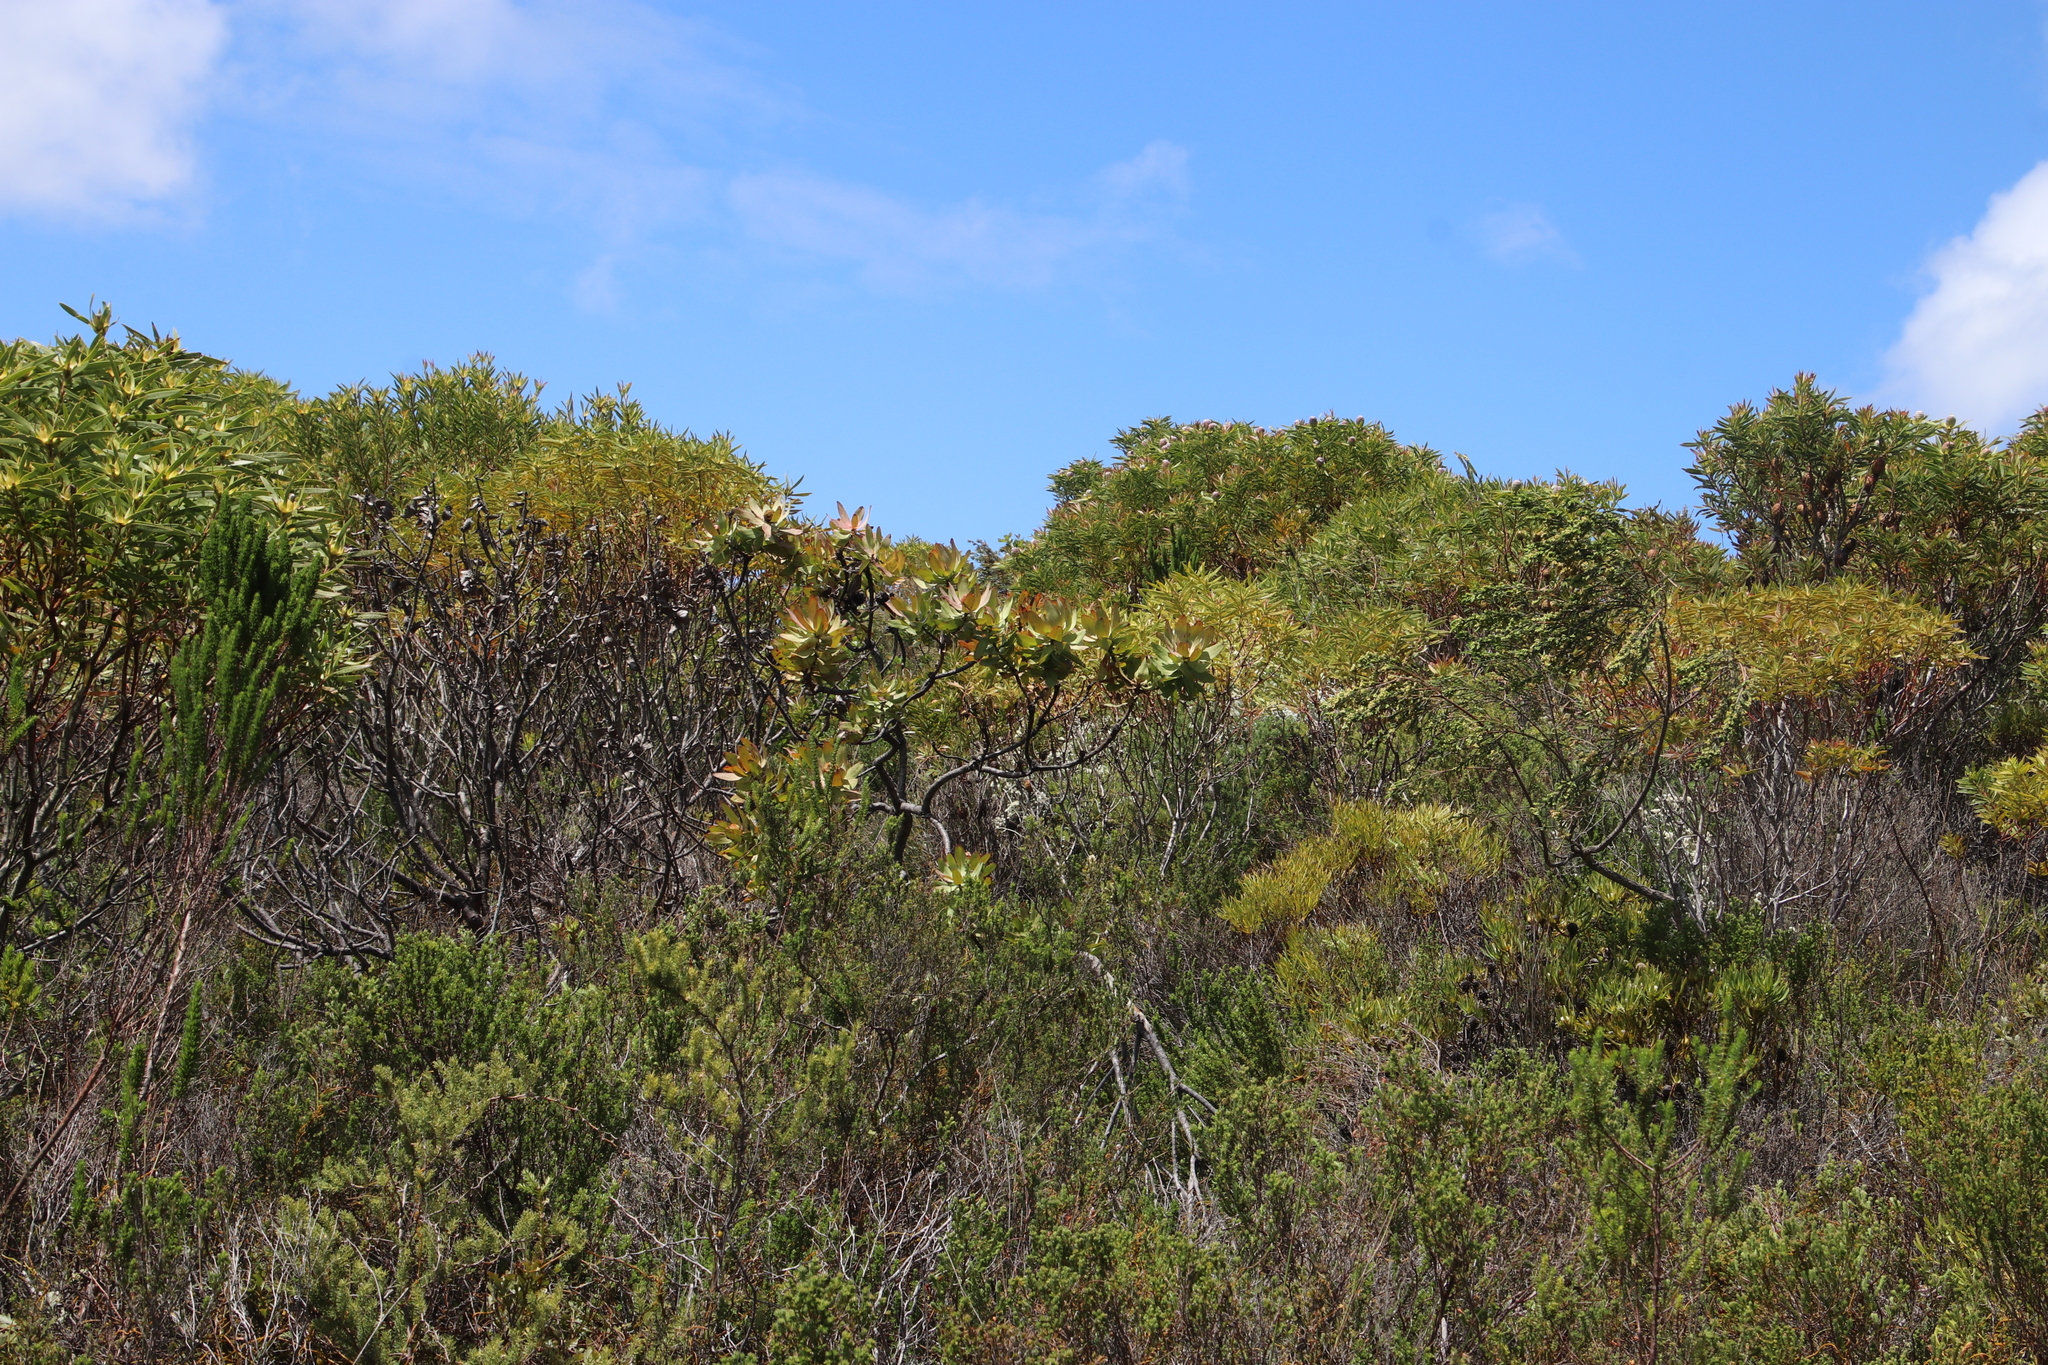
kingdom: Plantae
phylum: Tracheophyta
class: Magnoliopsida
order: Proteales
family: Proteaceae
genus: Leucadendron
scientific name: Leucadendron tinctum
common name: Spicy conebush
